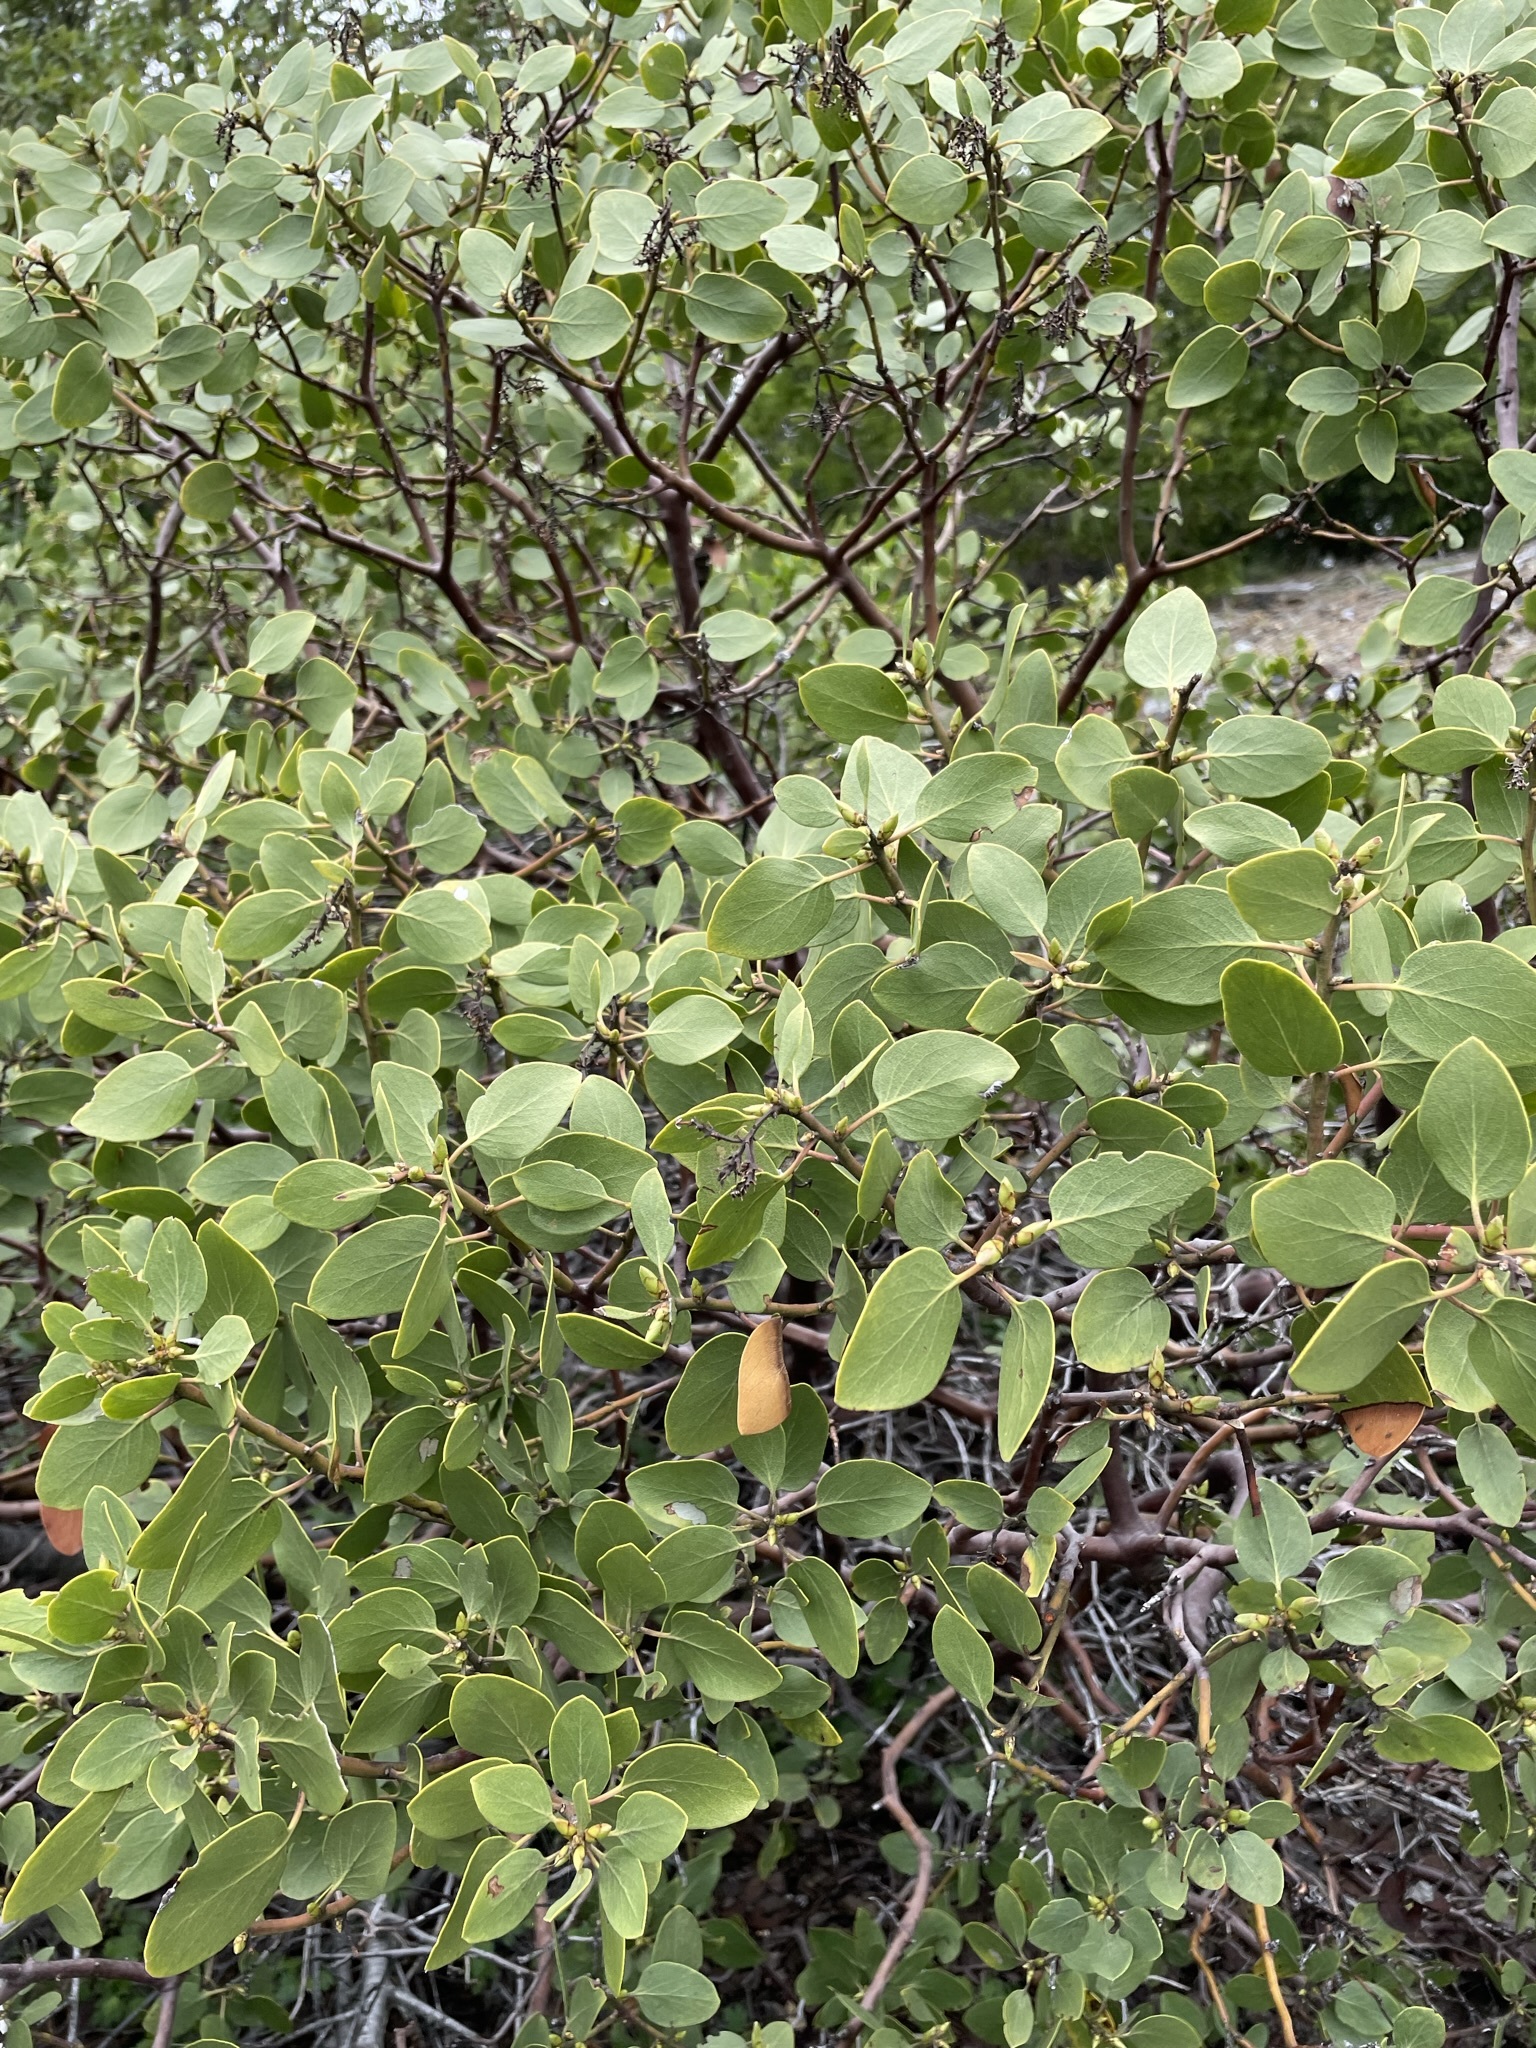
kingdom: Plantae
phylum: Tracheophyta
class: Magnoliopsida
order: Ericales
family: Ericaceae
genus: Arctostaphylos
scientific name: Arctostaphylos patula
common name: Green-leaf manzanita
